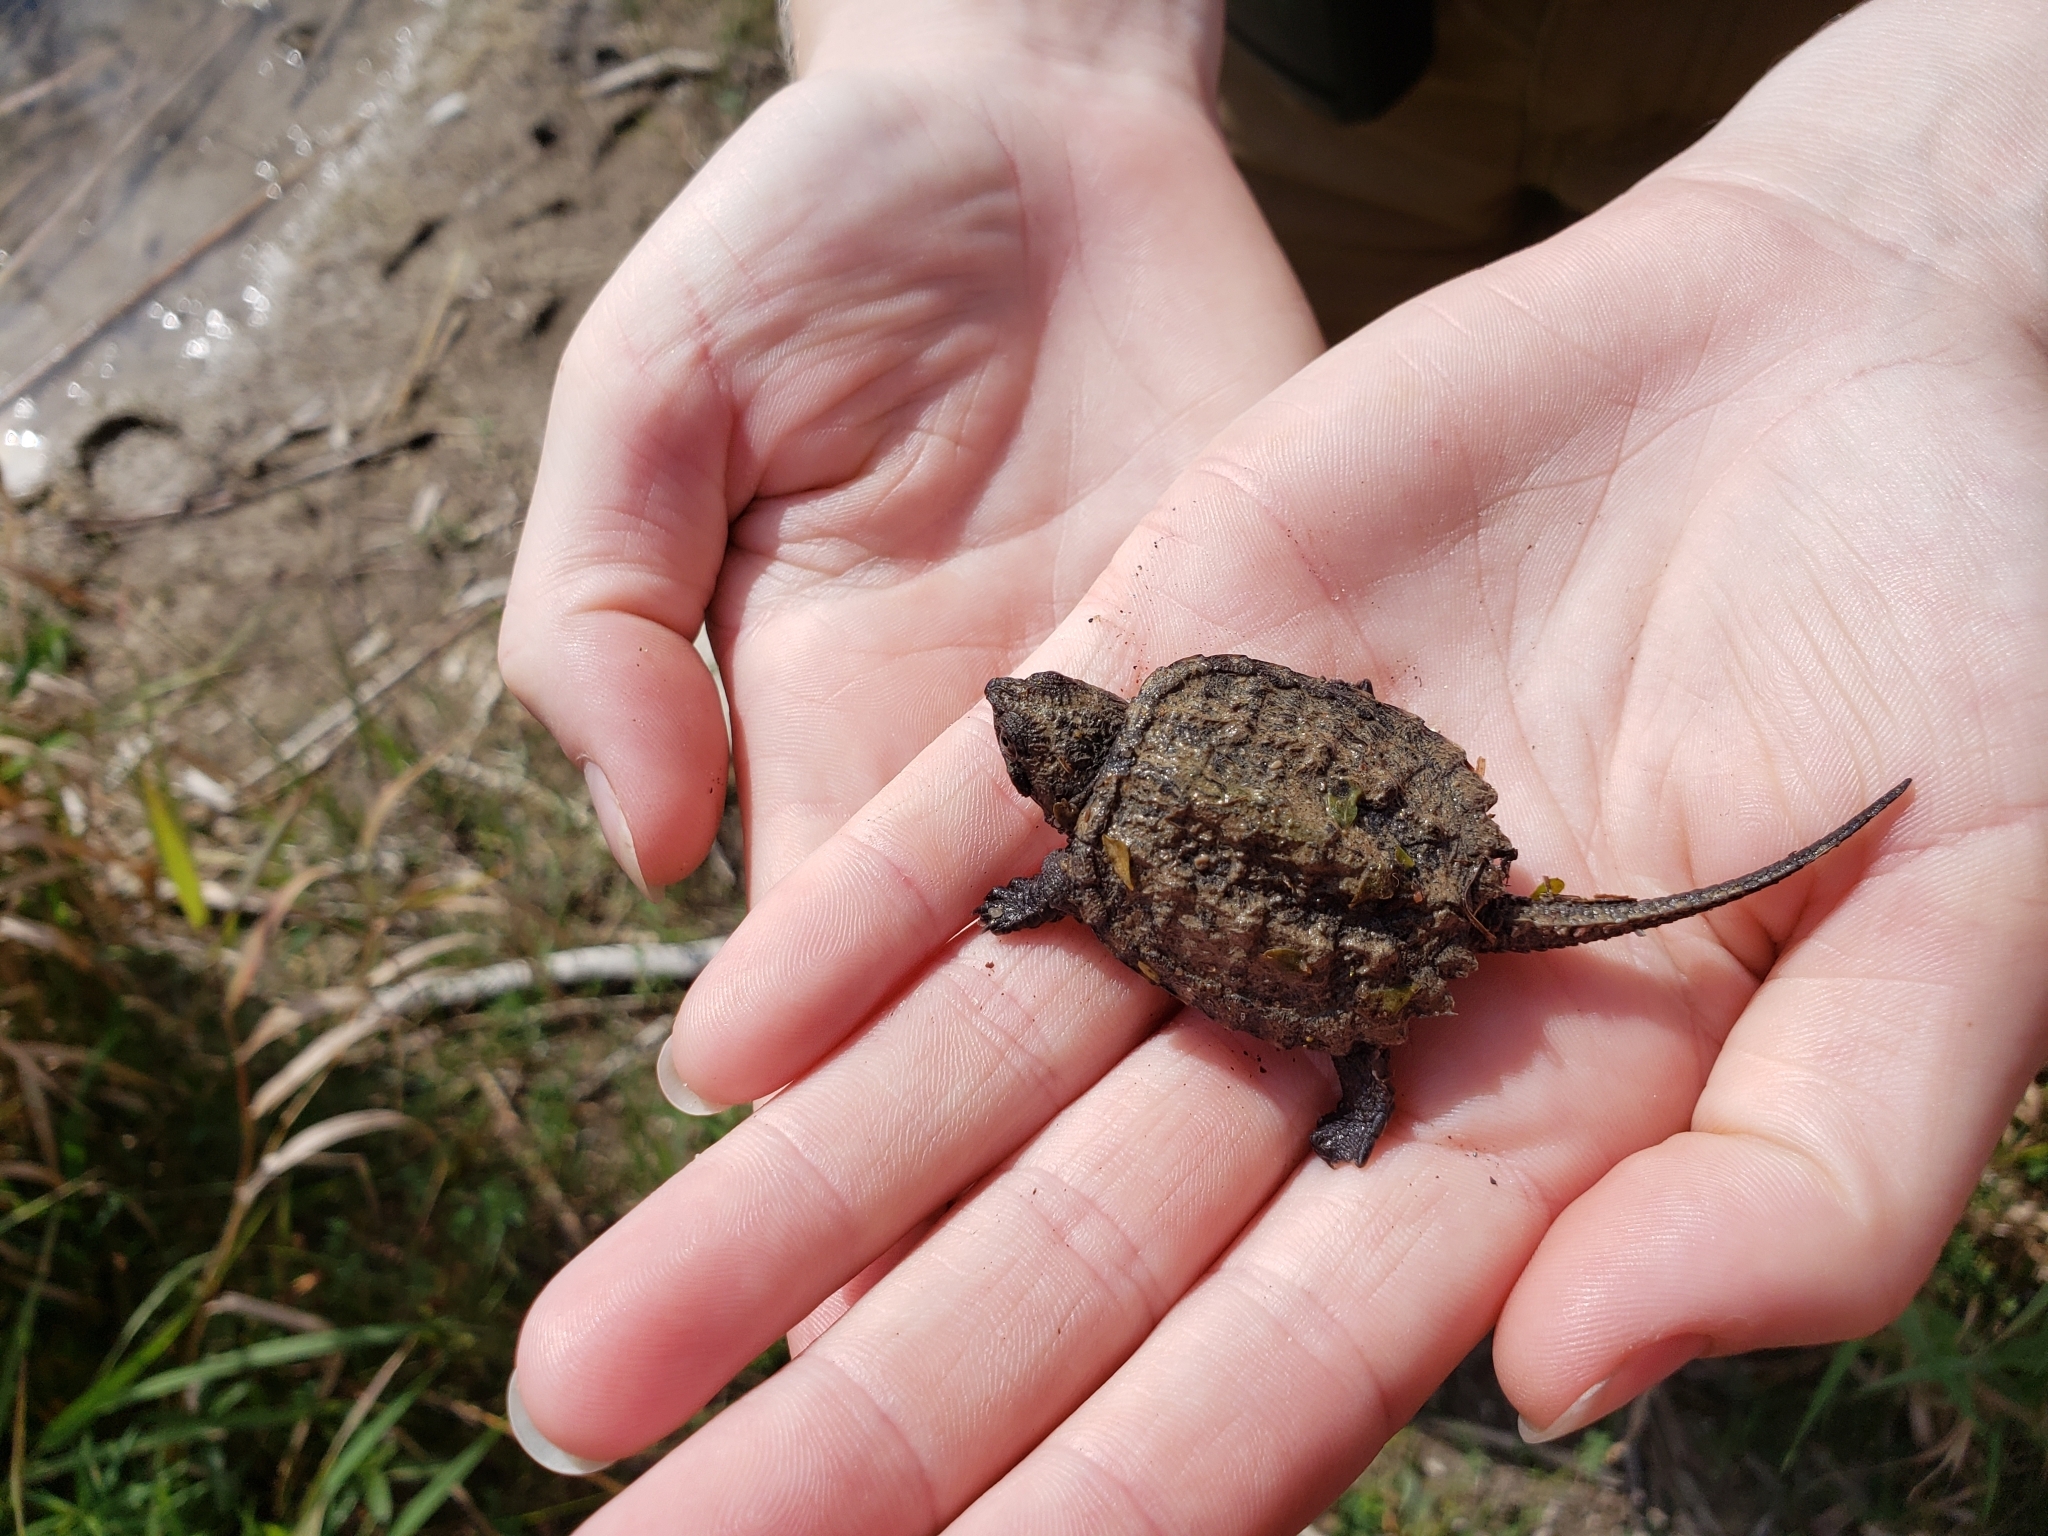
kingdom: Animalia
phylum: Chordata
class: Testudines
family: Chelydridae
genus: Chelydra
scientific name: Chelydra serpentina
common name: Common snapping turtle
